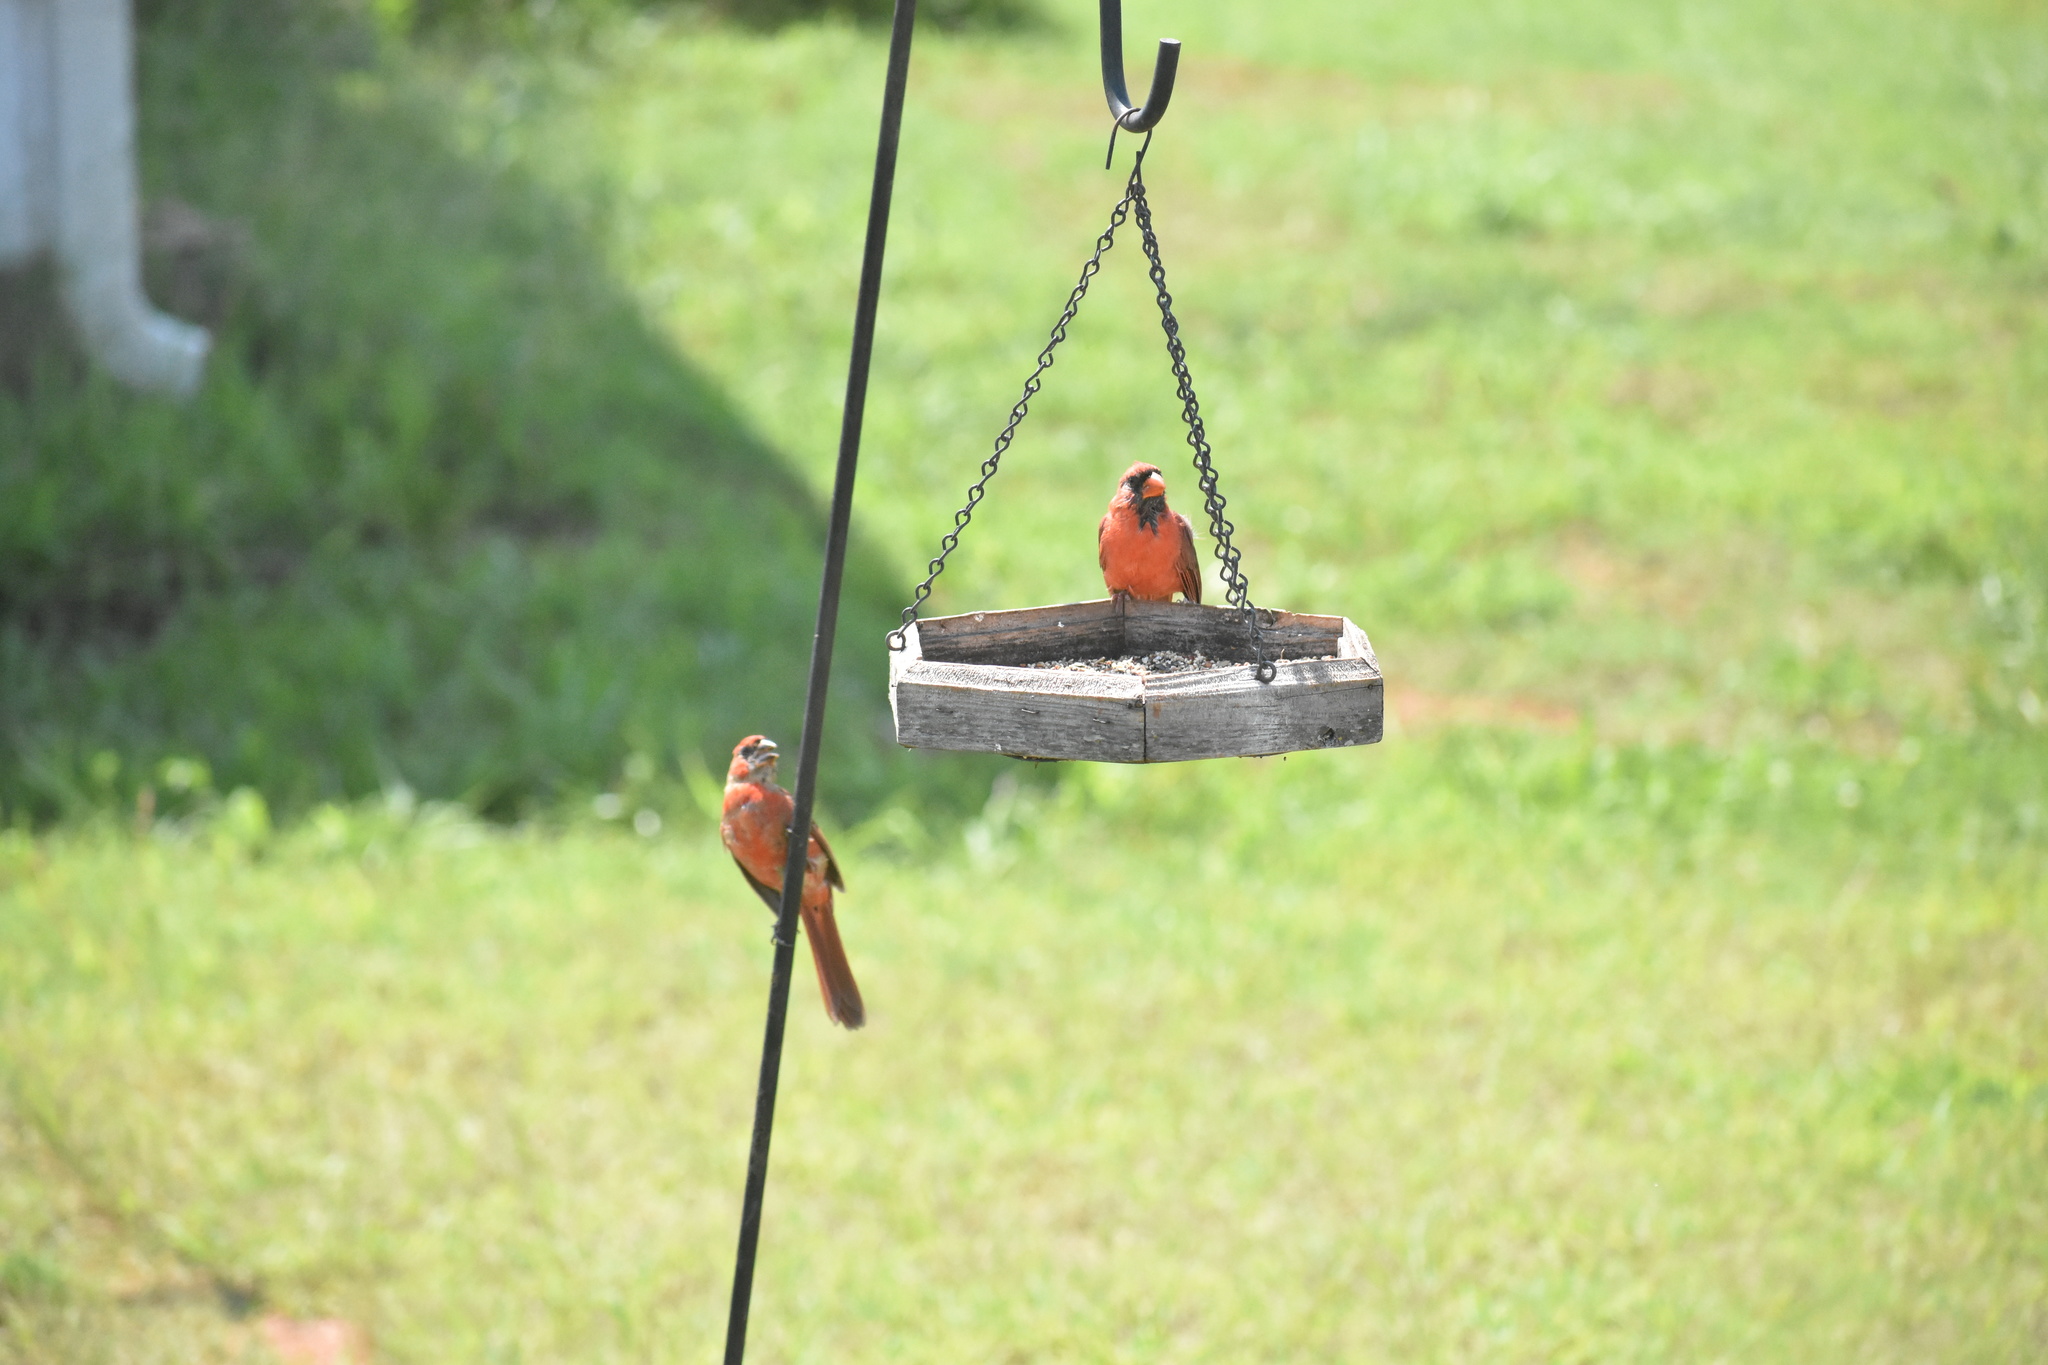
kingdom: Animalia
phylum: Chordata
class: Aves
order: Passeriformes
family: Cardinalidae
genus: Cardinalis
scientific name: Cardinalis cardinalis
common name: Northern cardinal
